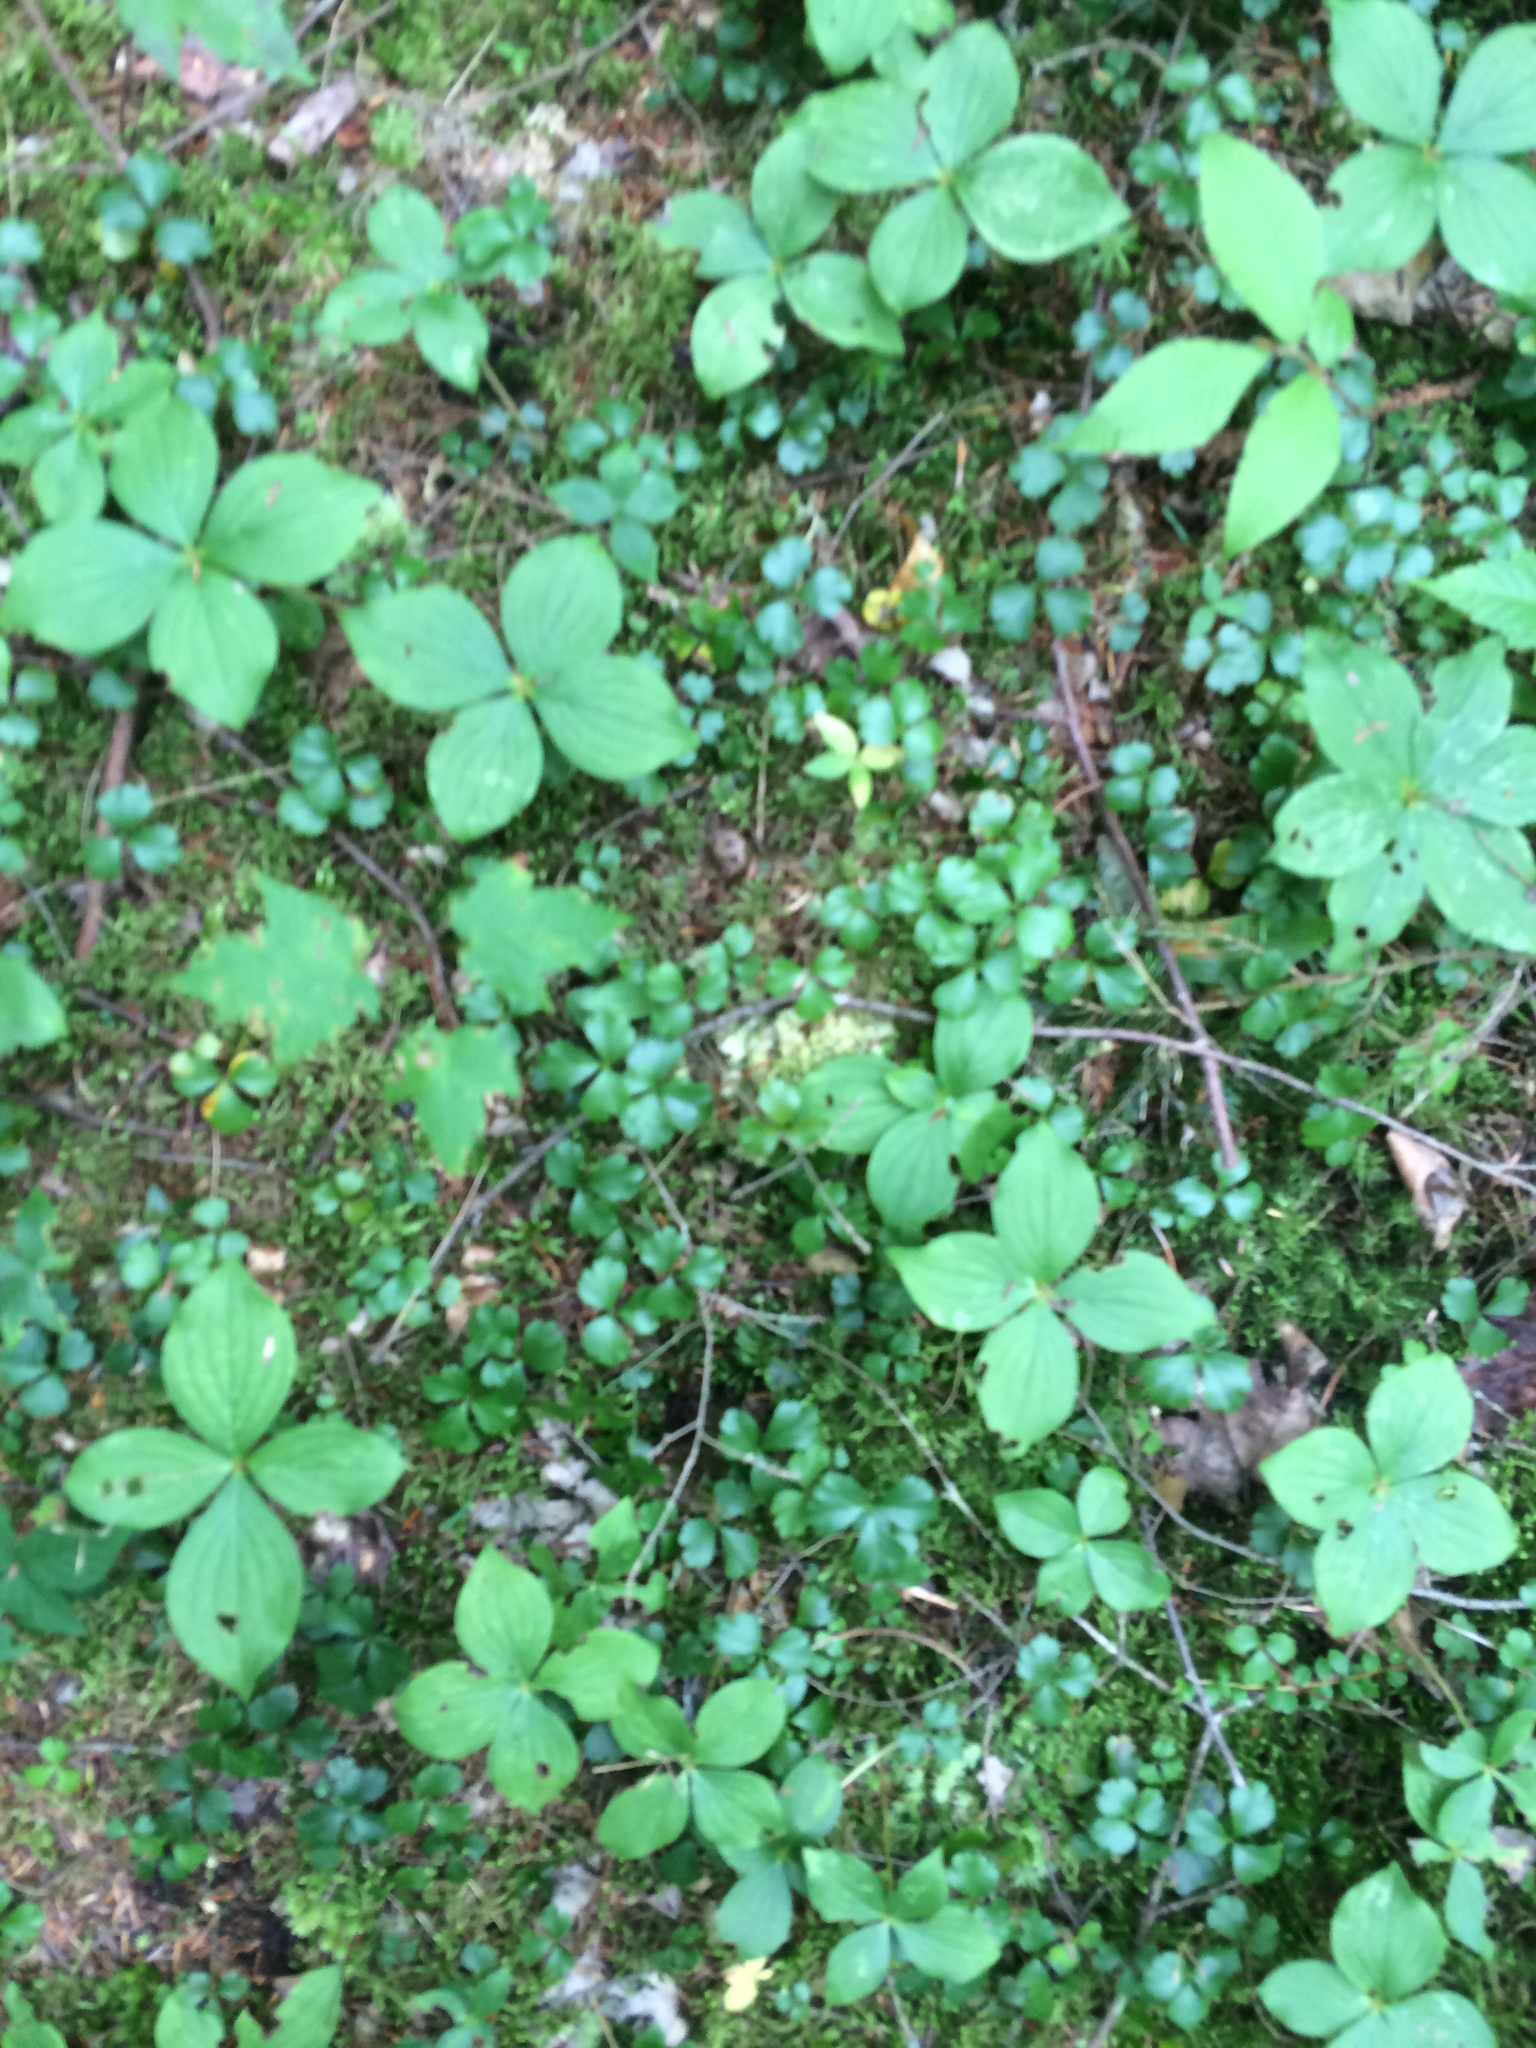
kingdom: Plantae
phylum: Tracheophyta
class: Magnoliopsida
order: Ranunculales
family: Ranunculaceae
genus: Coptis
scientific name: Coptis trifolia
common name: Canker-root
